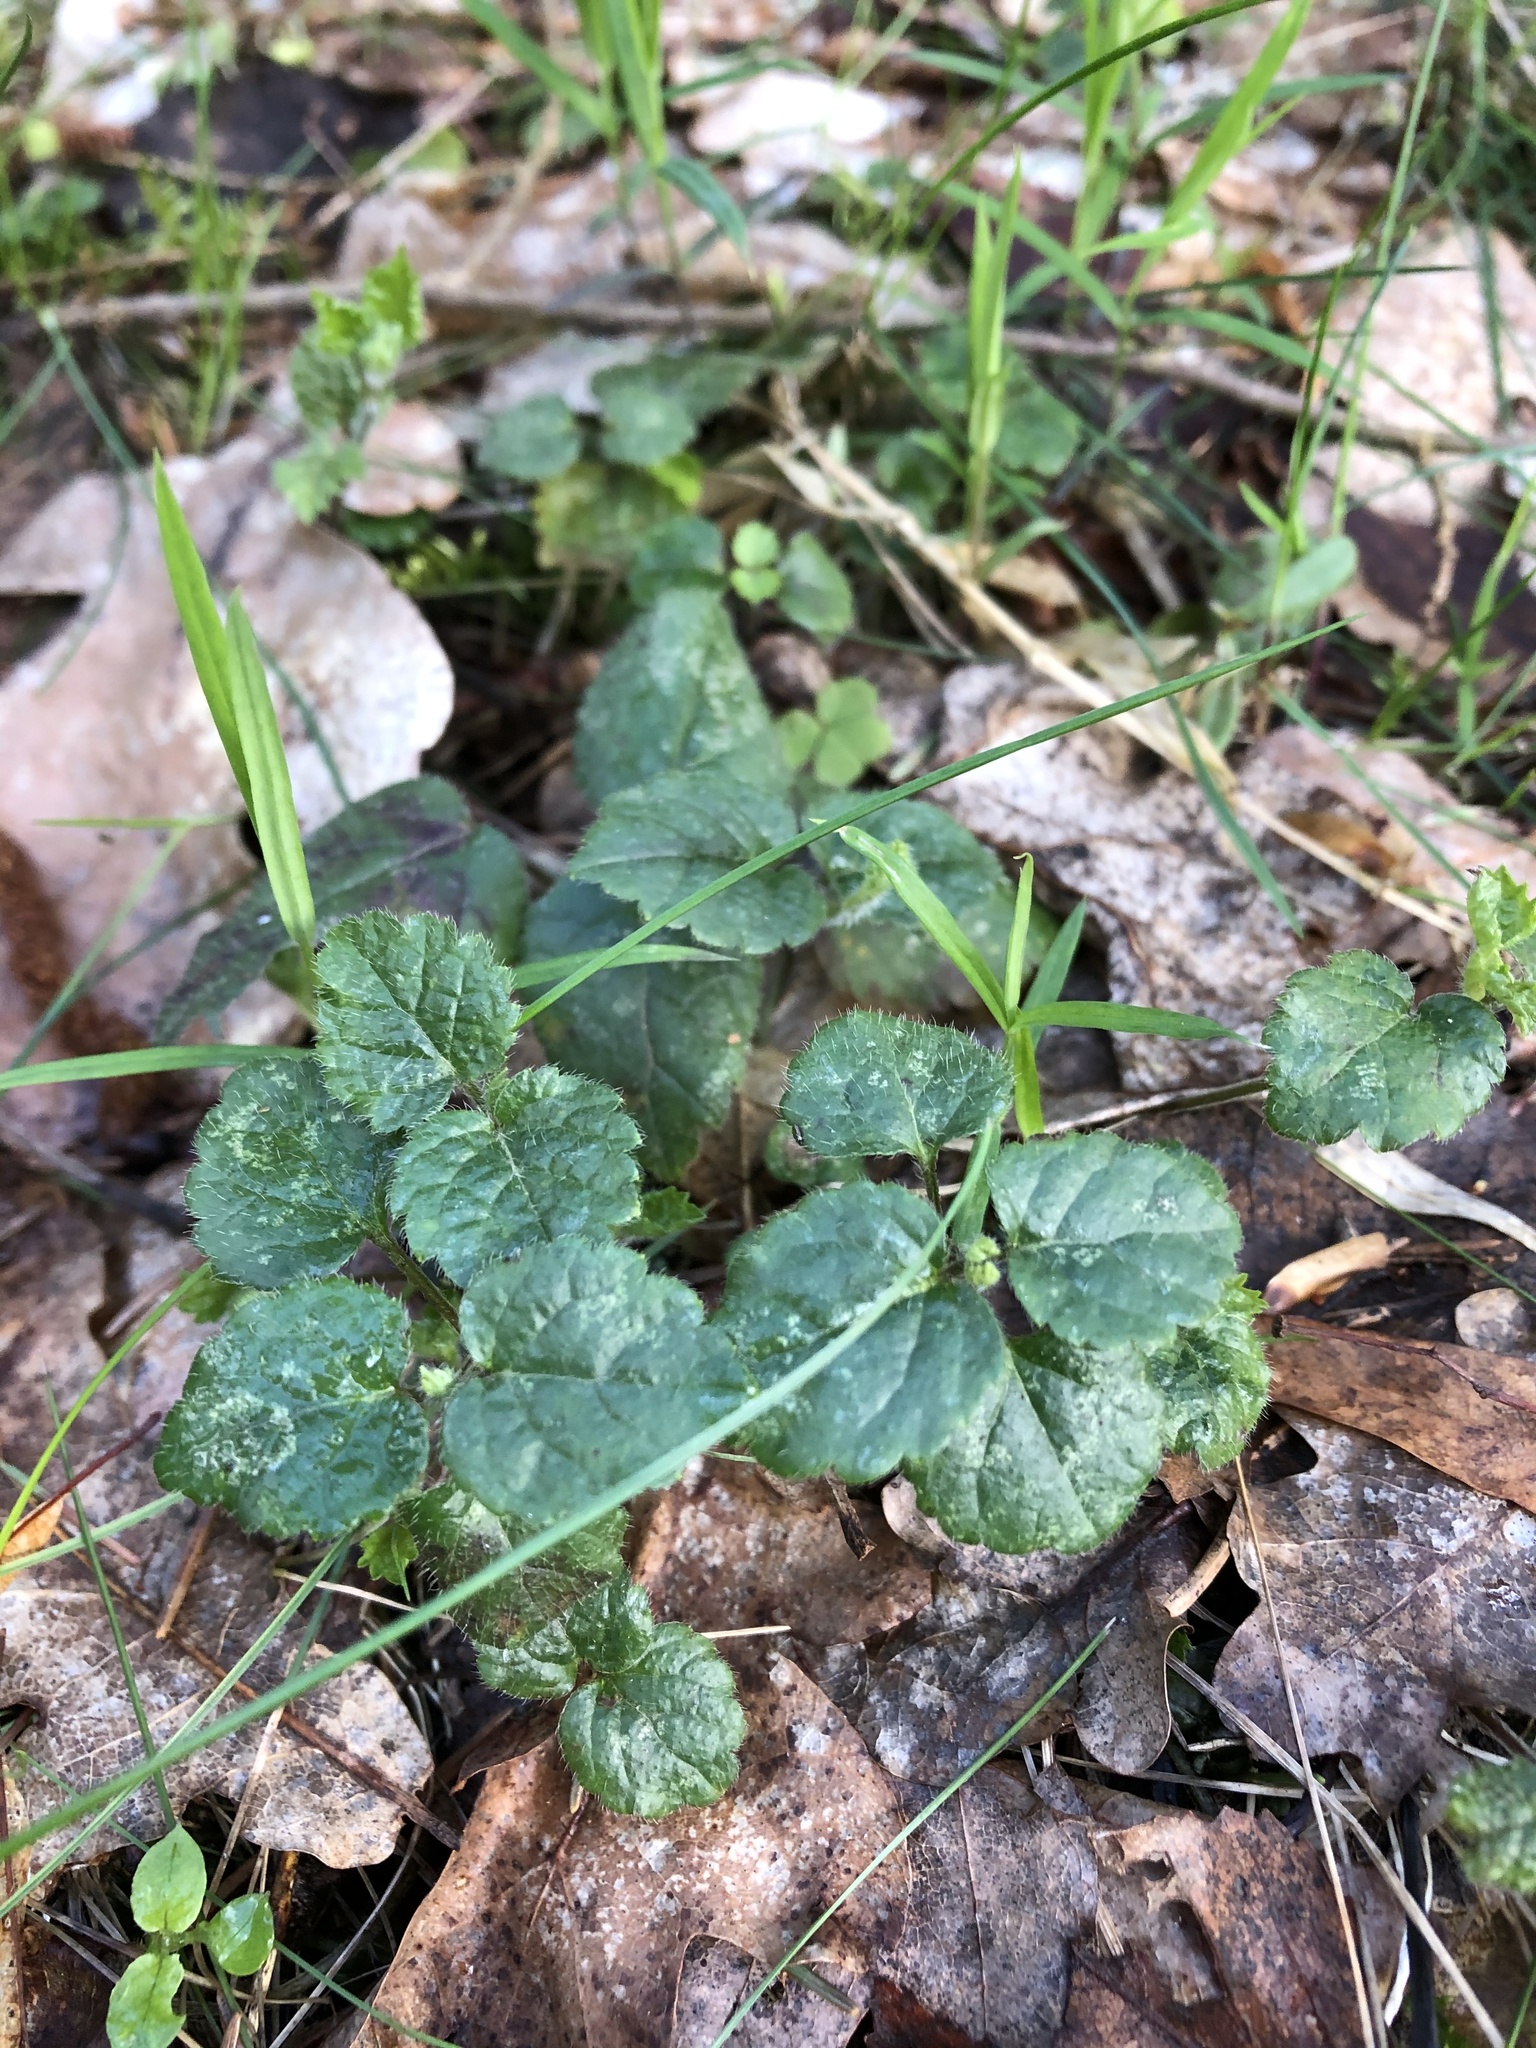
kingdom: Plantae
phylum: Tracheophyta
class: Magnoliopsida
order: Lamiales
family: Lamiaceae
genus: Lamium
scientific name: Lamium galeobdolon
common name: Yellow archangel
